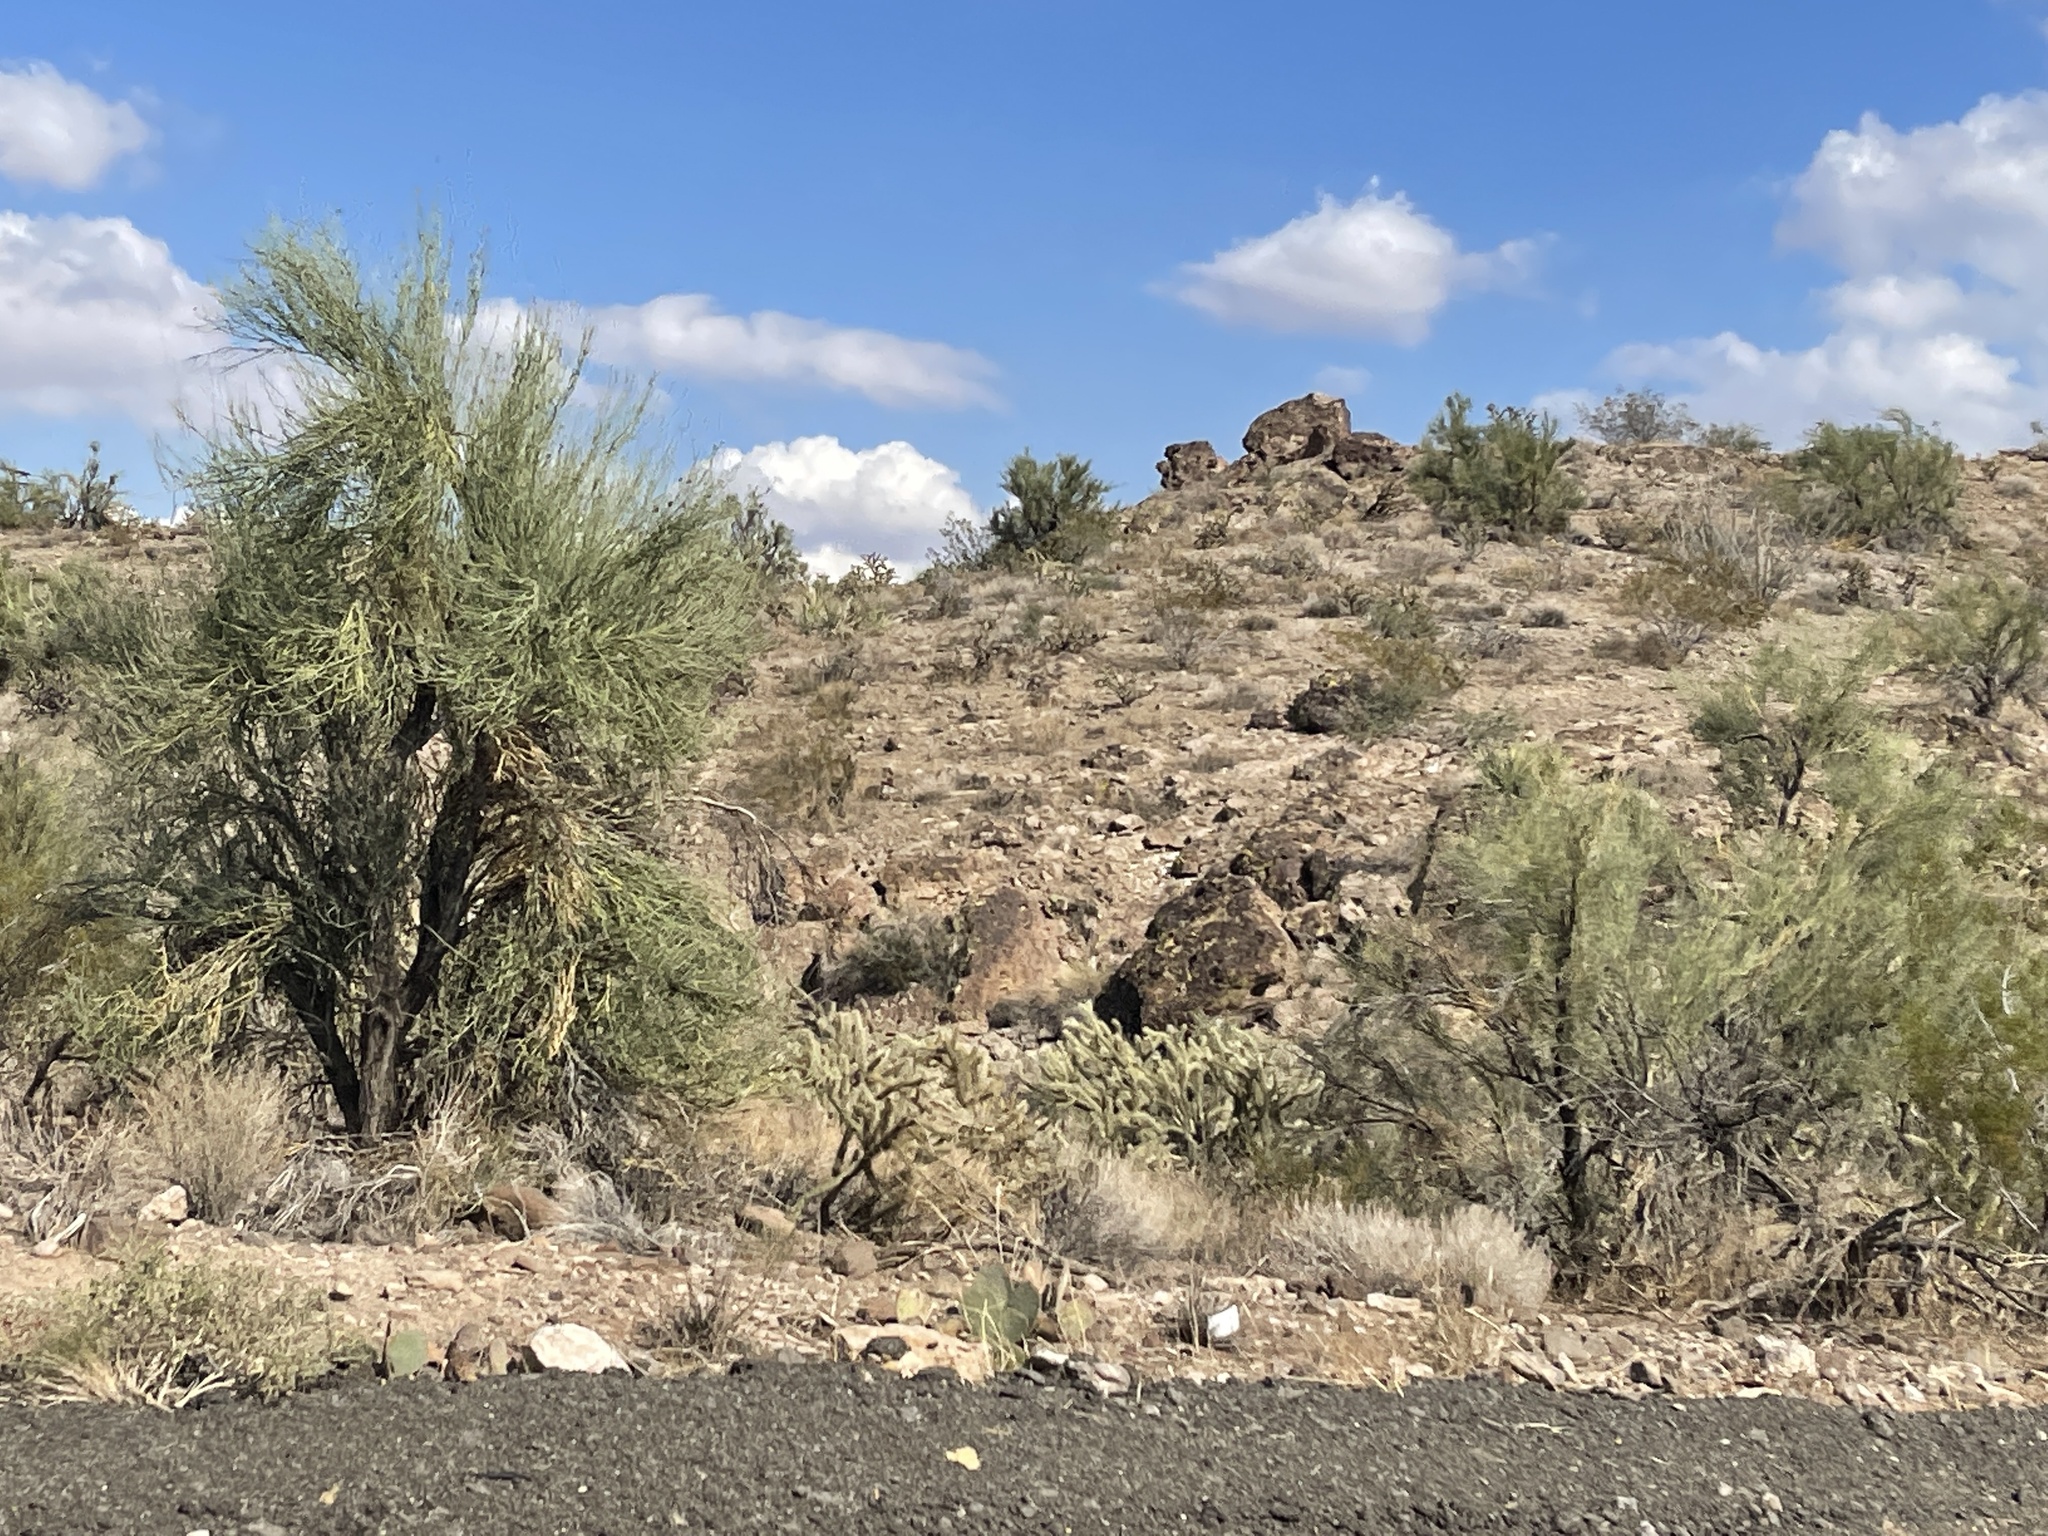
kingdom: Plantae
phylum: Tracheophyta
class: Magnoliopsida
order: Celastrales
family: Celastraceae
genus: Canotia
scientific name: Canotia holacantha
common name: Crucifixion thorns
